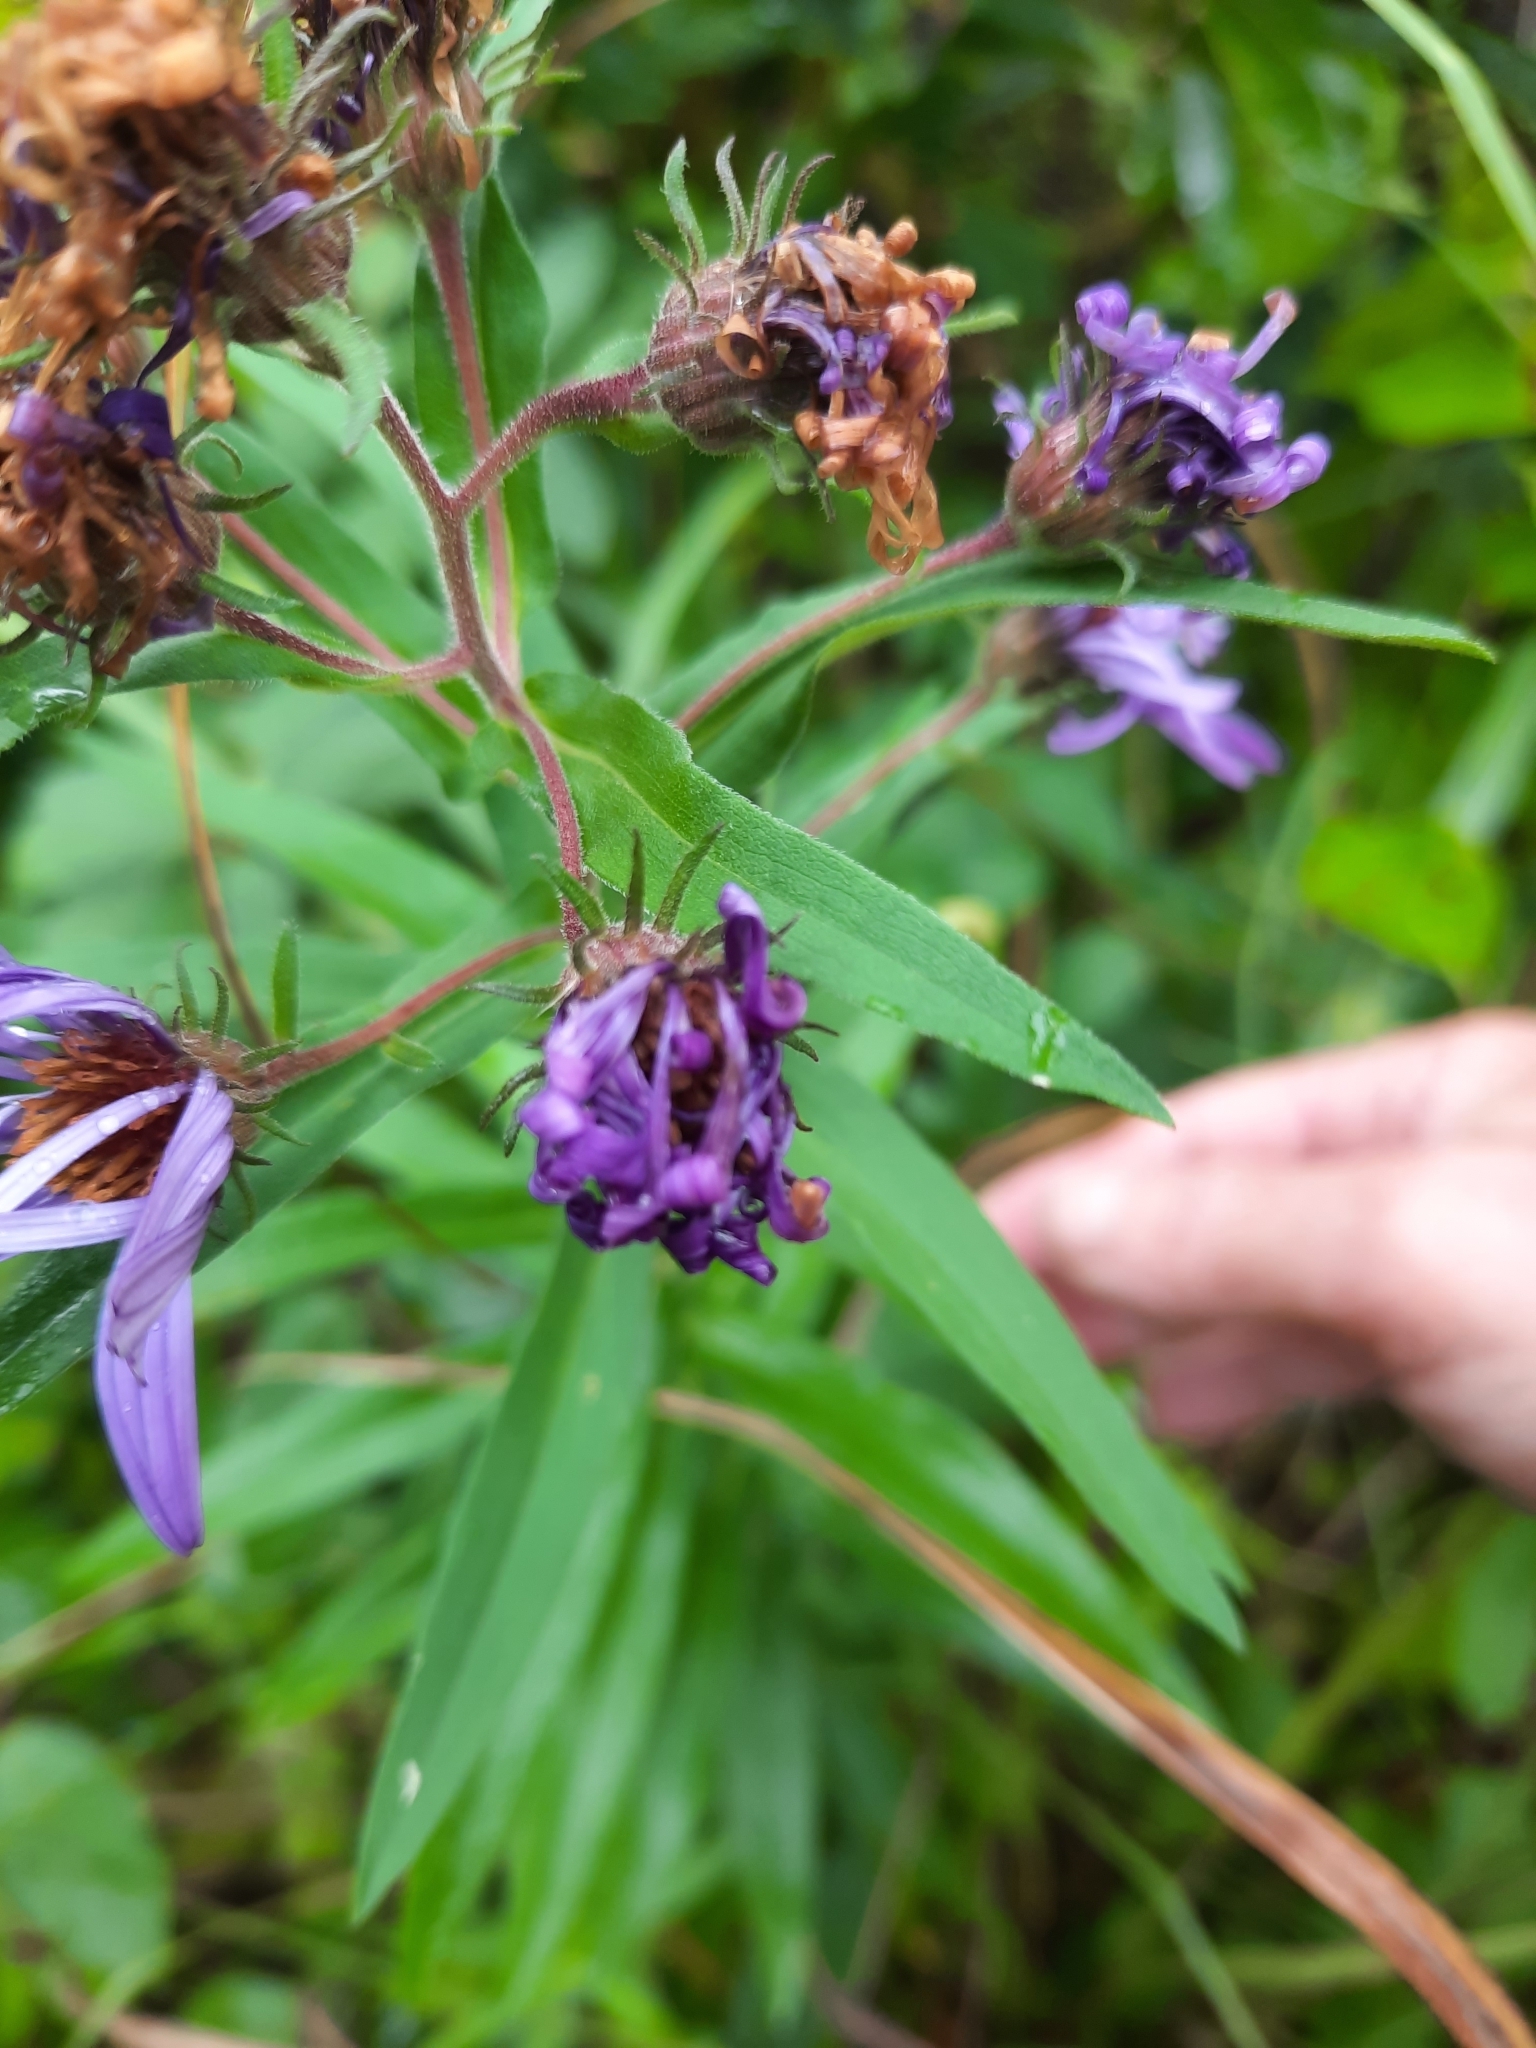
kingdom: Plantae
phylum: Tracheophyta
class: Magnoliopsida
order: Asterales
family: Asteraceae
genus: Symphyotrichum
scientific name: Symphyotrichum novae-angliae
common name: Michaelmas daisy
